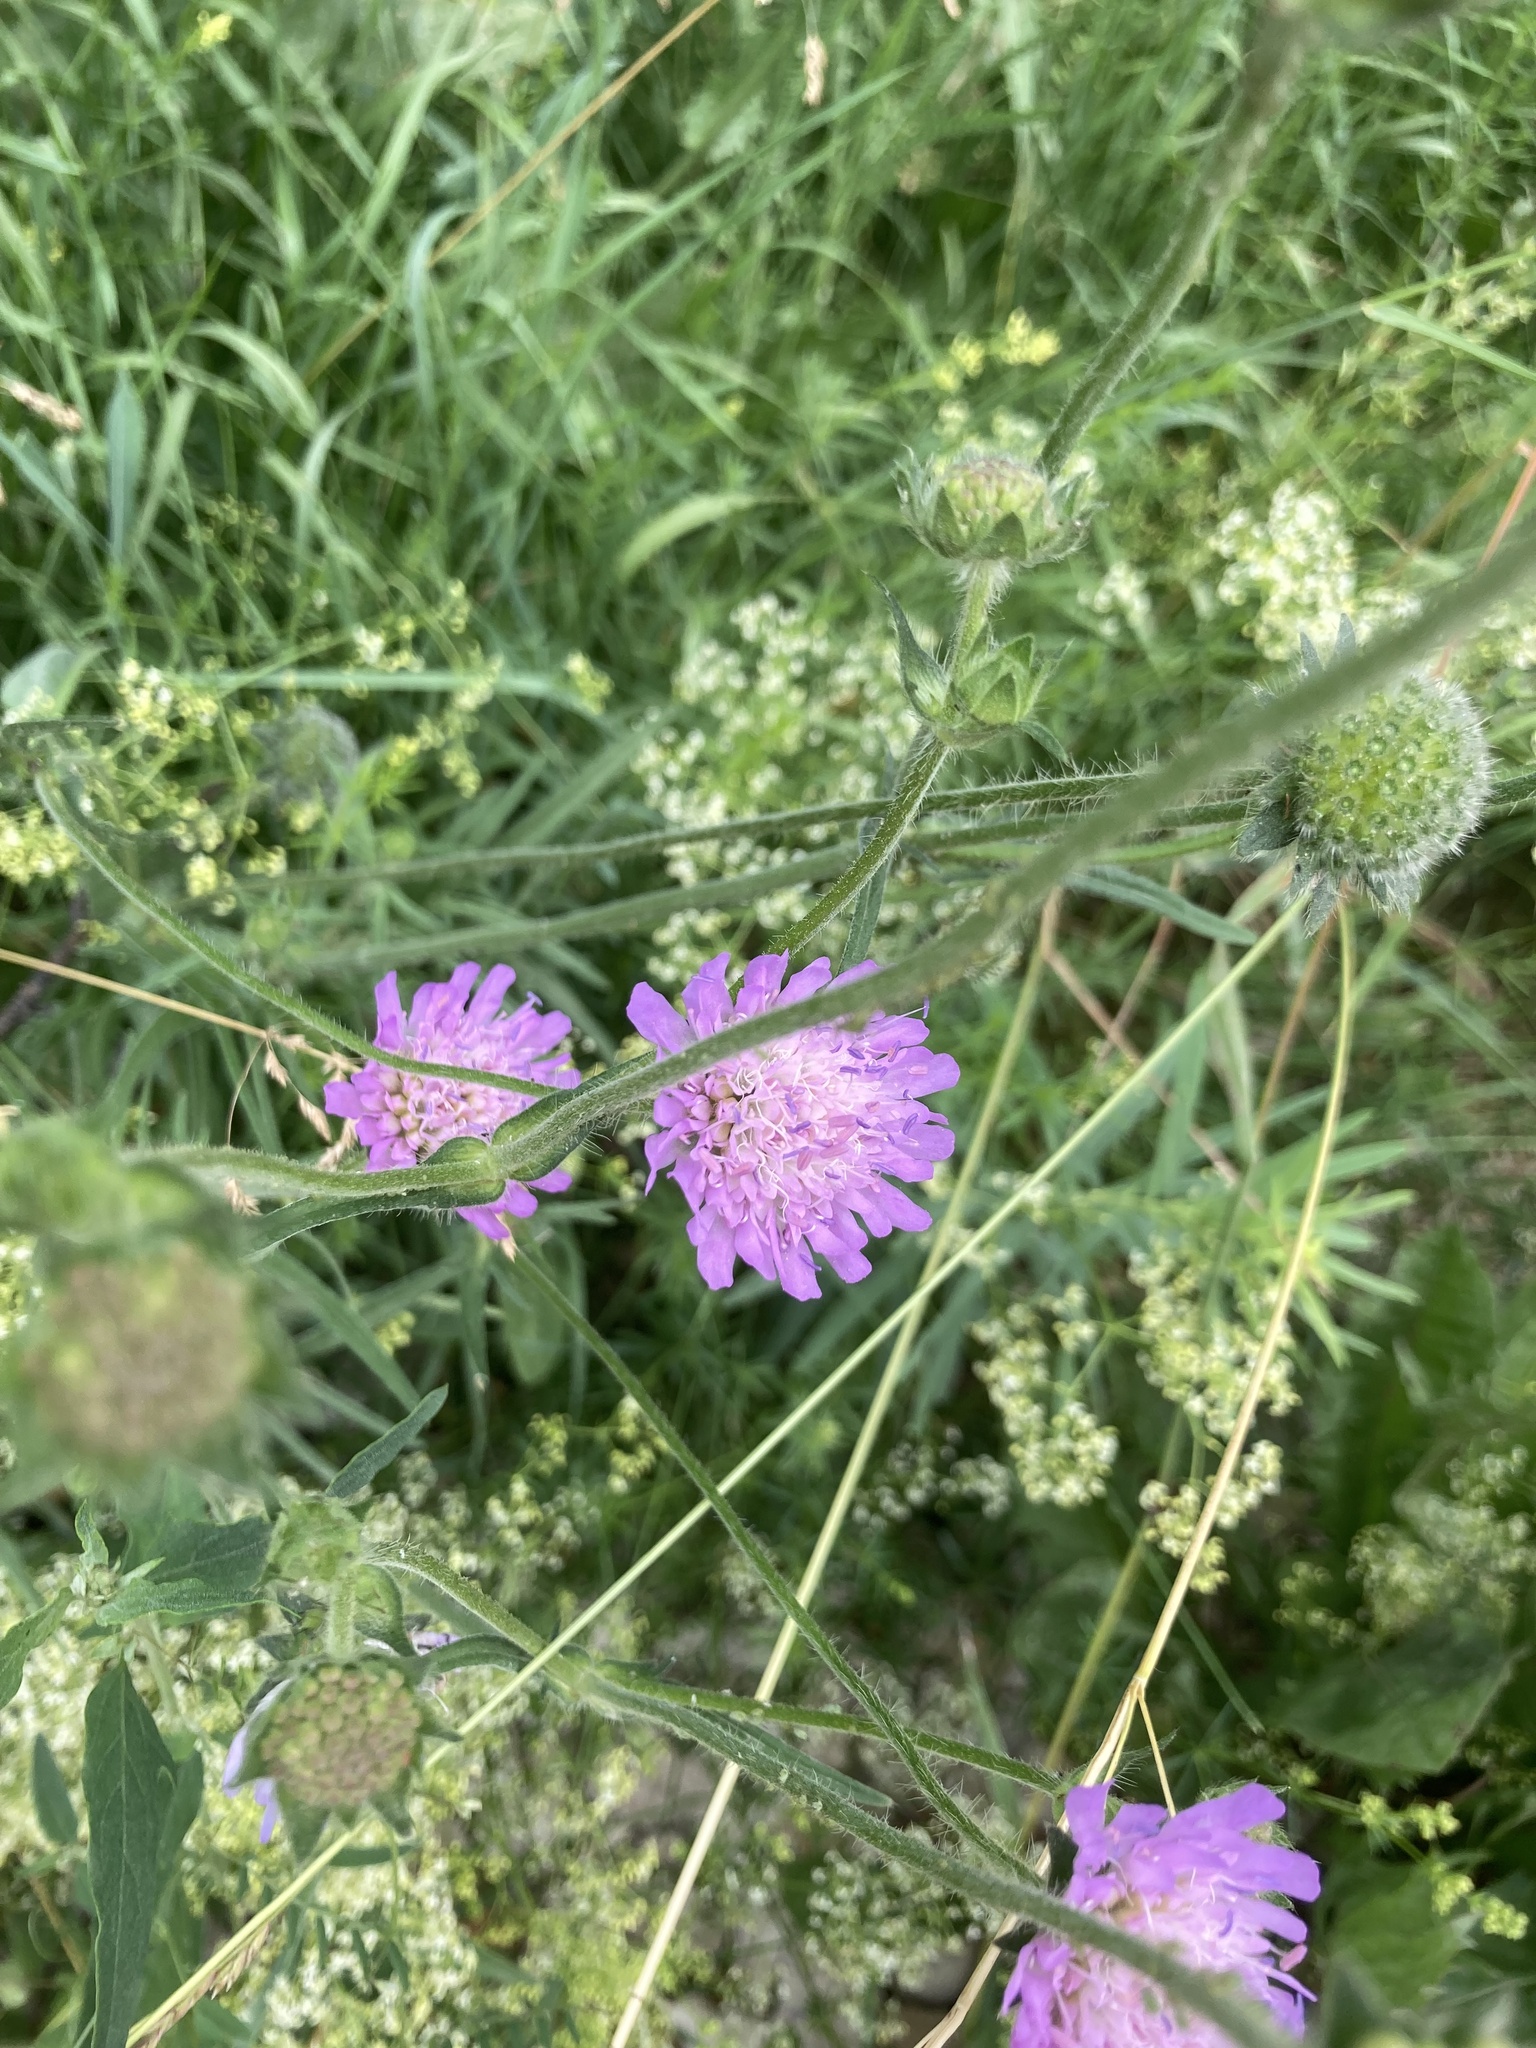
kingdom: Plantae
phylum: Tracheophyta
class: Magnoliopsida
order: Dipsacales
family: Caprifoliaceae
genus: Knautia
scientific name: Knautia arvensis
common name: Field scabiosa
